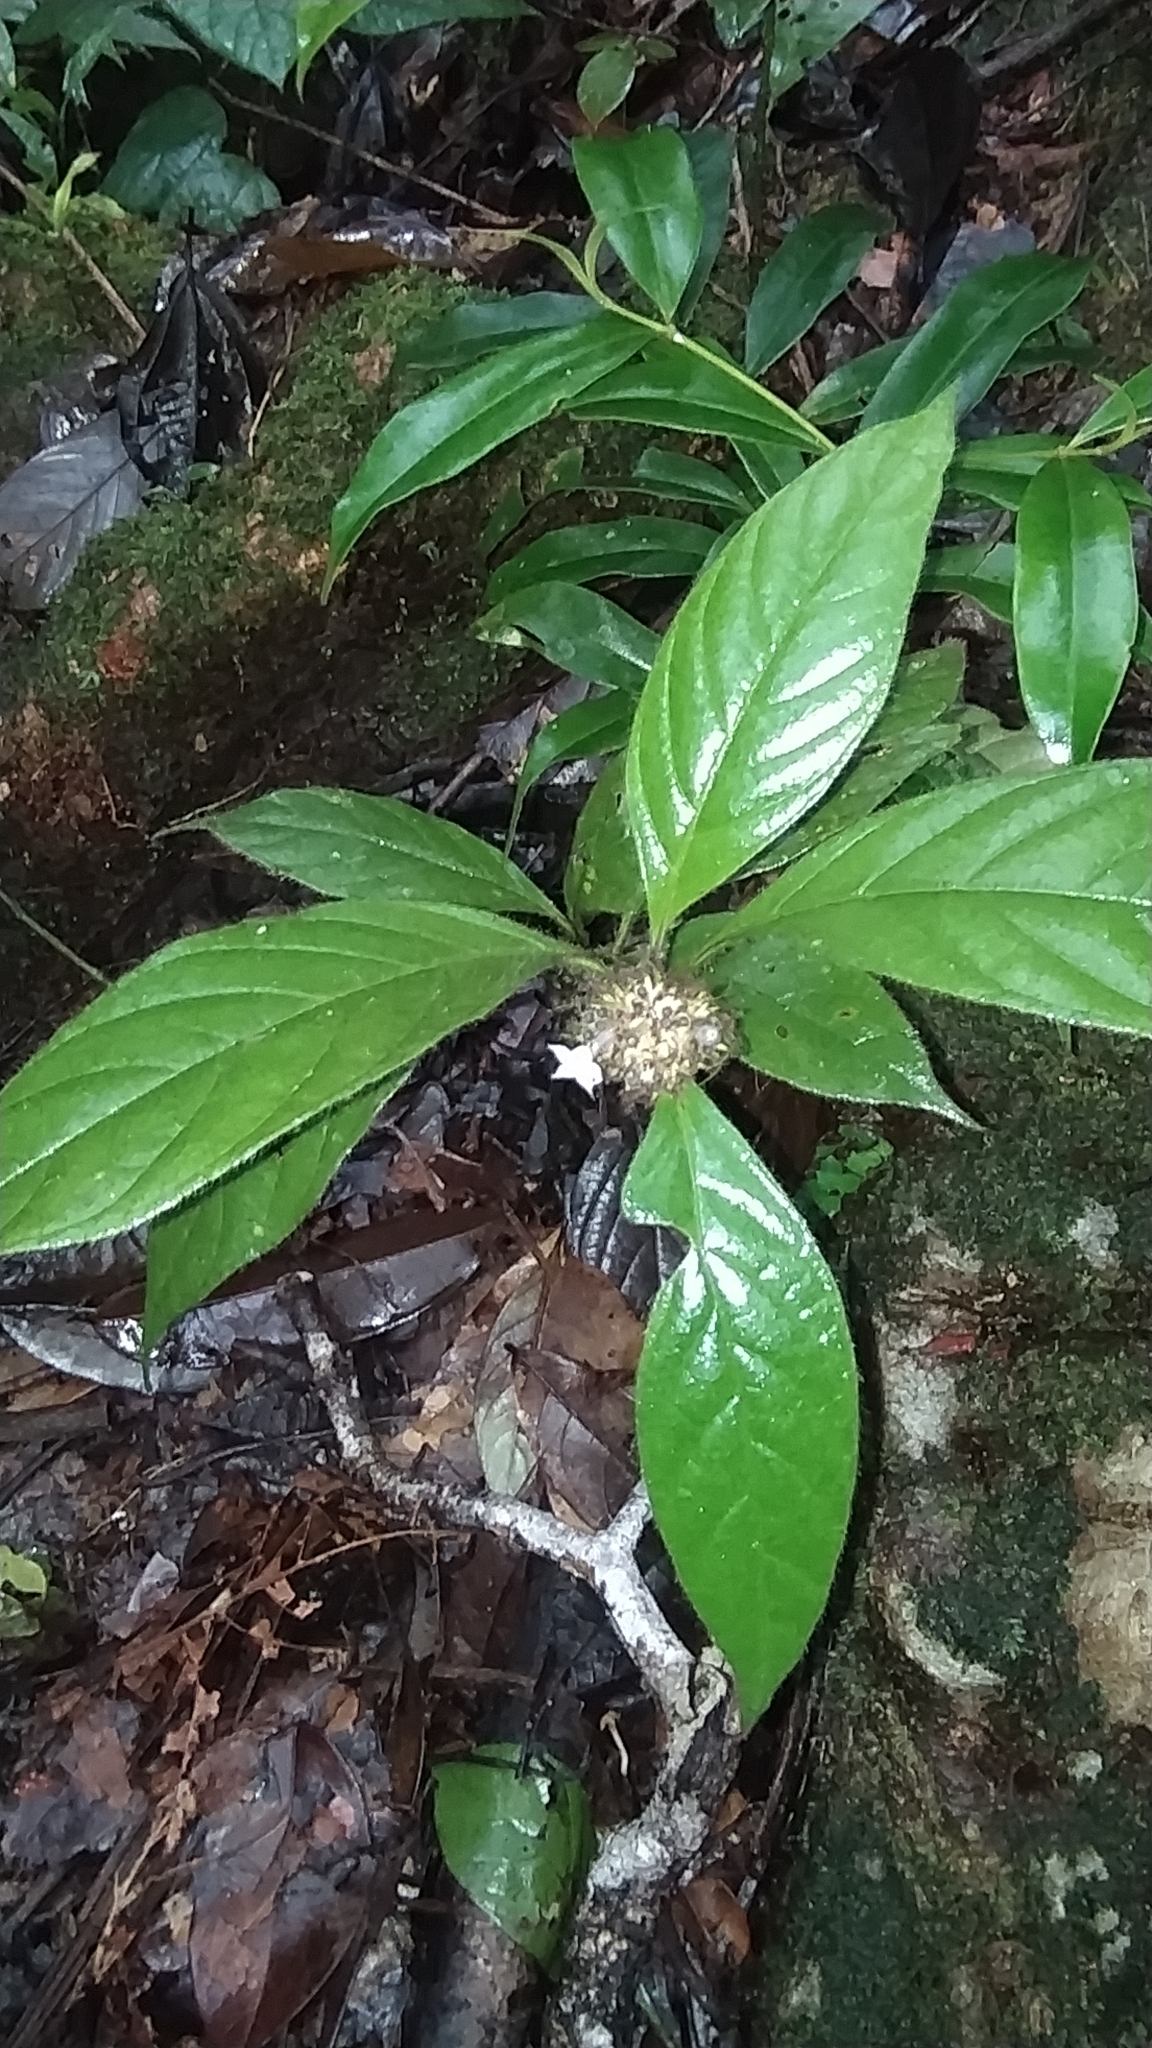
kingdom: Plantae
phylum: Tracheophyta
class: Magnoliopsida
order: Gentianales
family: Rubiaceae
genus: Palicourea
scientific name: Palicourea glabra
